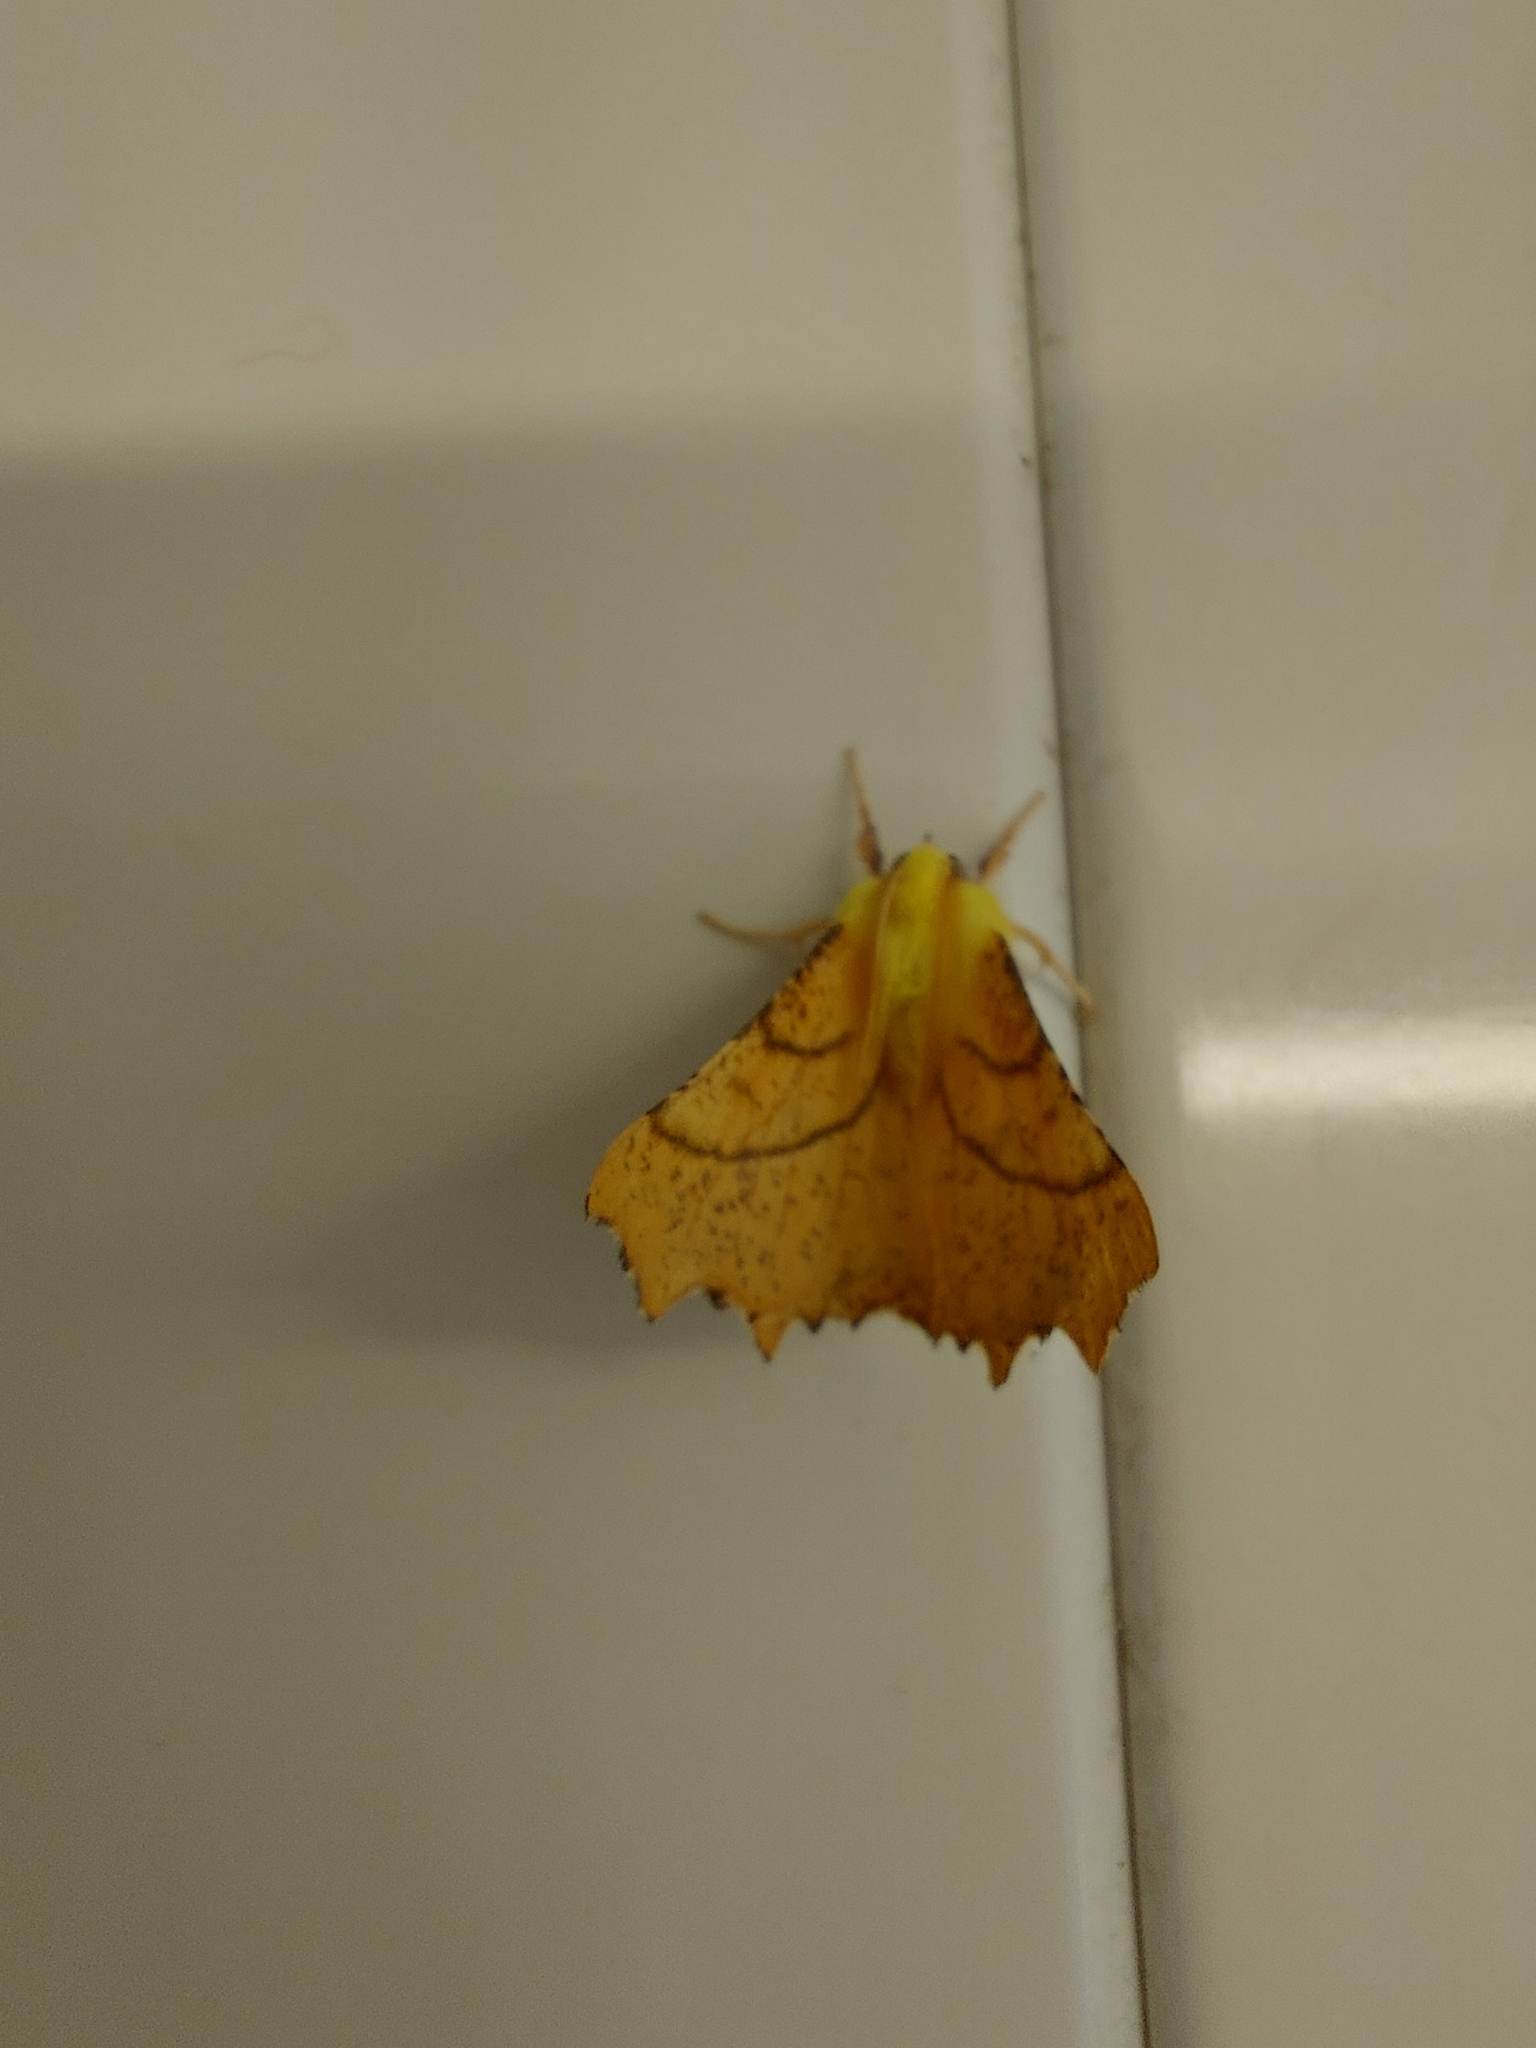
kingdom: Animalia
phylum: Arthropoda
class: Insecta
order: Lepidoptera
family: Geometridae
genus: Ennomos
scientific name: Ennomos alniaria
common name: Canary-shouldered thorn
